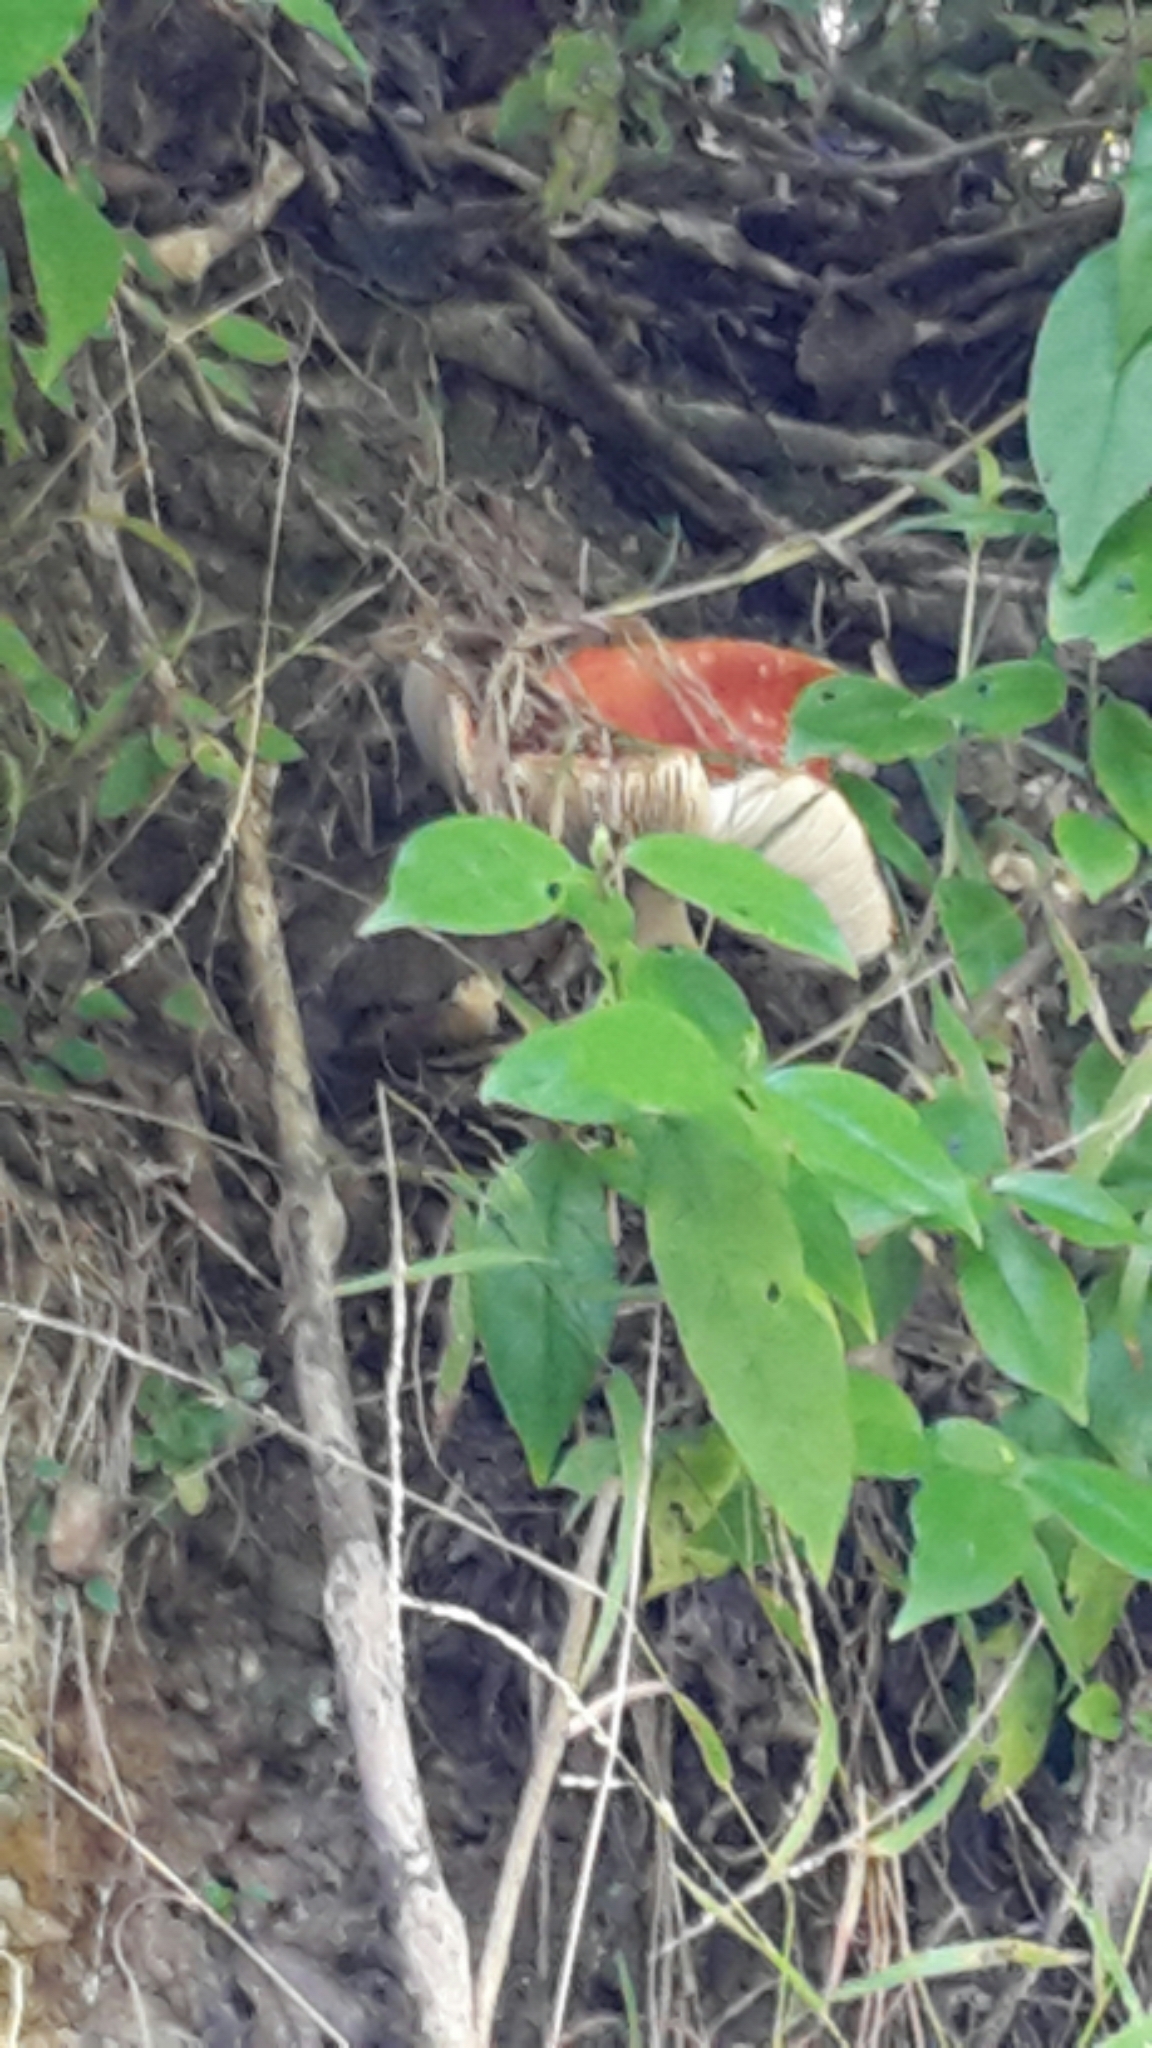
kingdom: Fungi
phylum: Basidiomycota
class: Agaricomycetes
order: Agaricales
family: Amanitaceae
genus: Amanita
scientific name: Amanita muscaria
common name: Fly agaric
